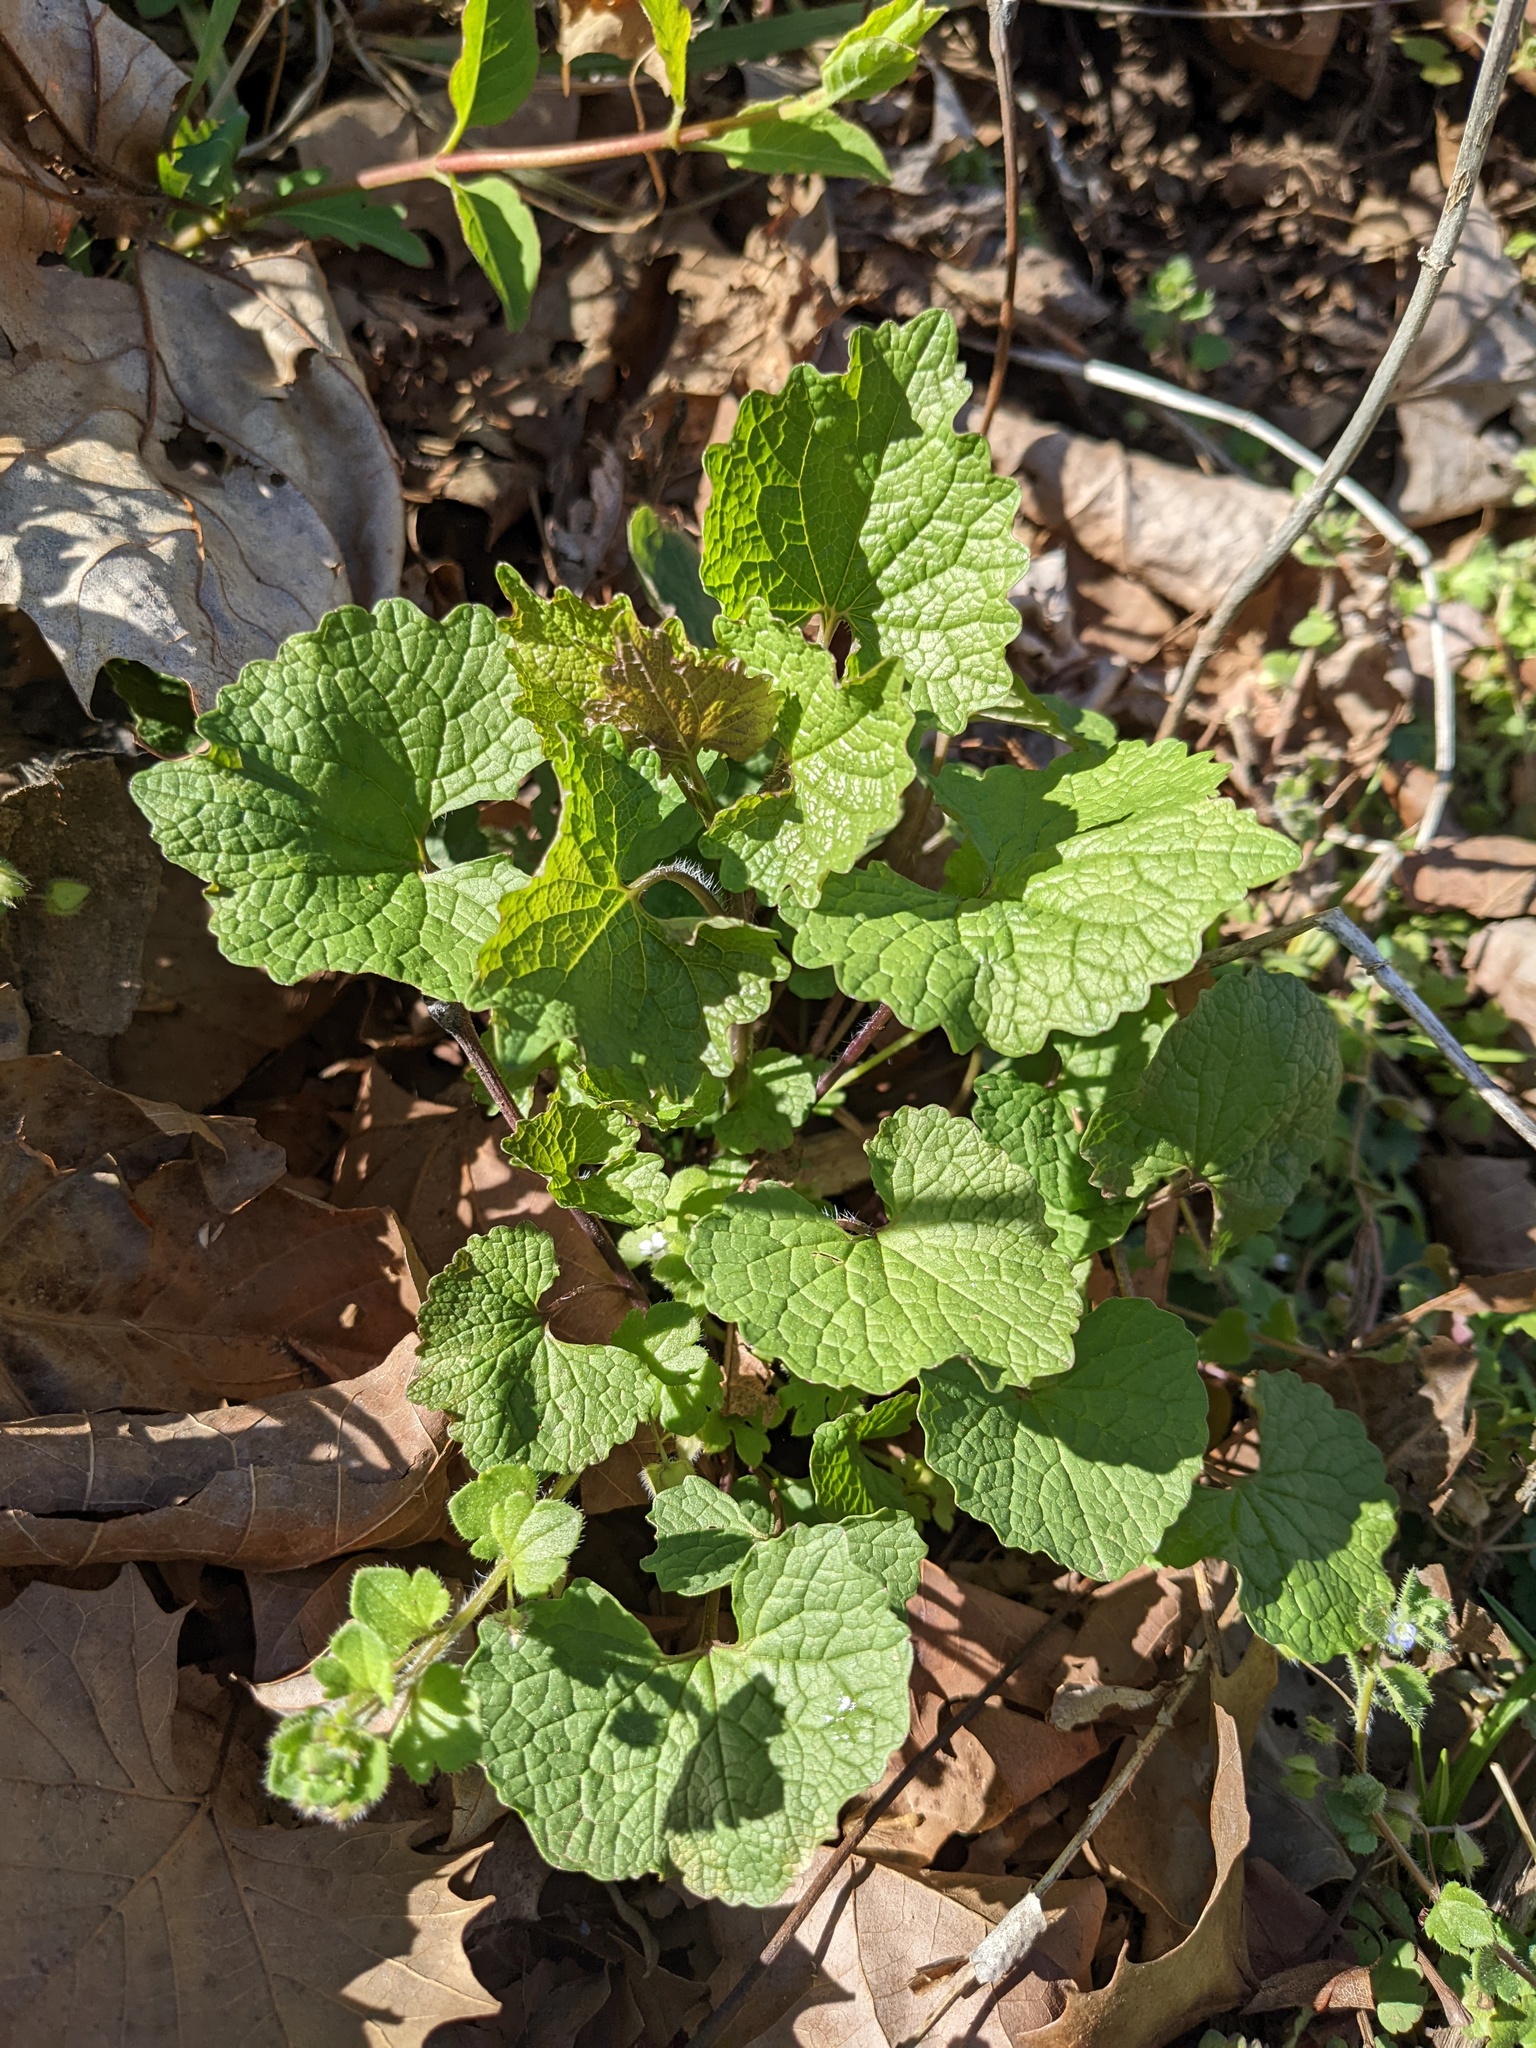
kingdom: Plantae
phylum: Tracheophyta
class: Magnoliopsida
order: Brassicales
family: Brassicaceae
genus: Alliaria
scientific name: Alliaria petiolata
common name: Garlic mustard
